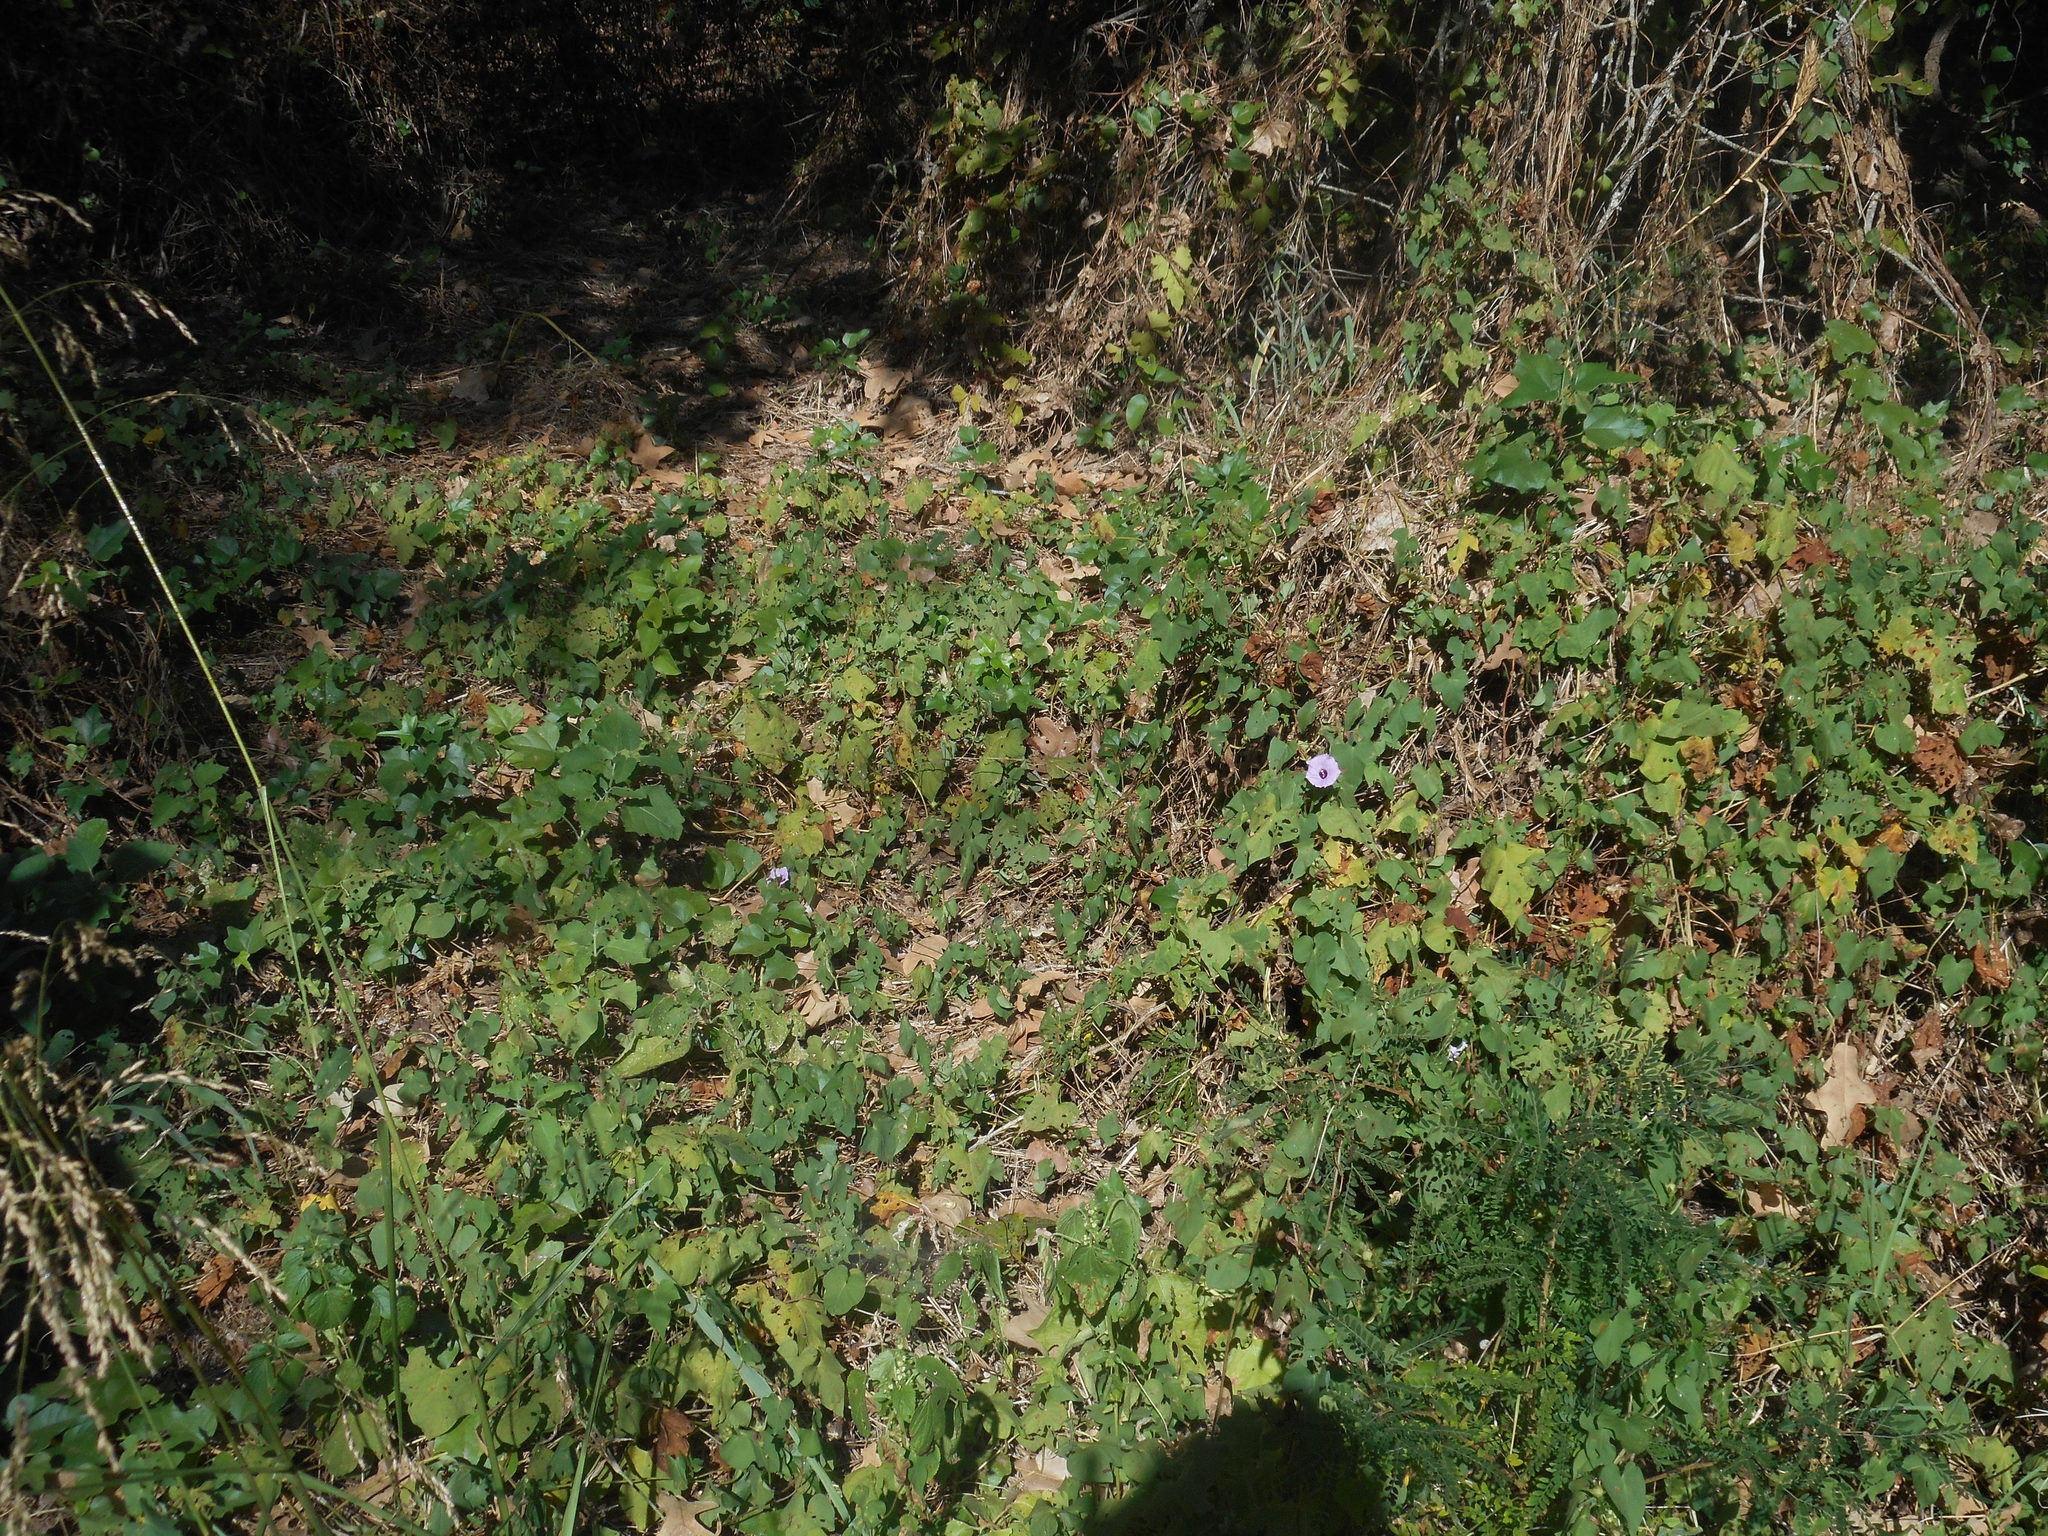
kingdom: Plantae
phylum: Tracheophyta
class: Magnoliopsida
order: Solanales
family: Convolvulaceae
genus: Ipomoea
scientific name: Ipomoea cordatotriloba
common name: Cotton morning glory
